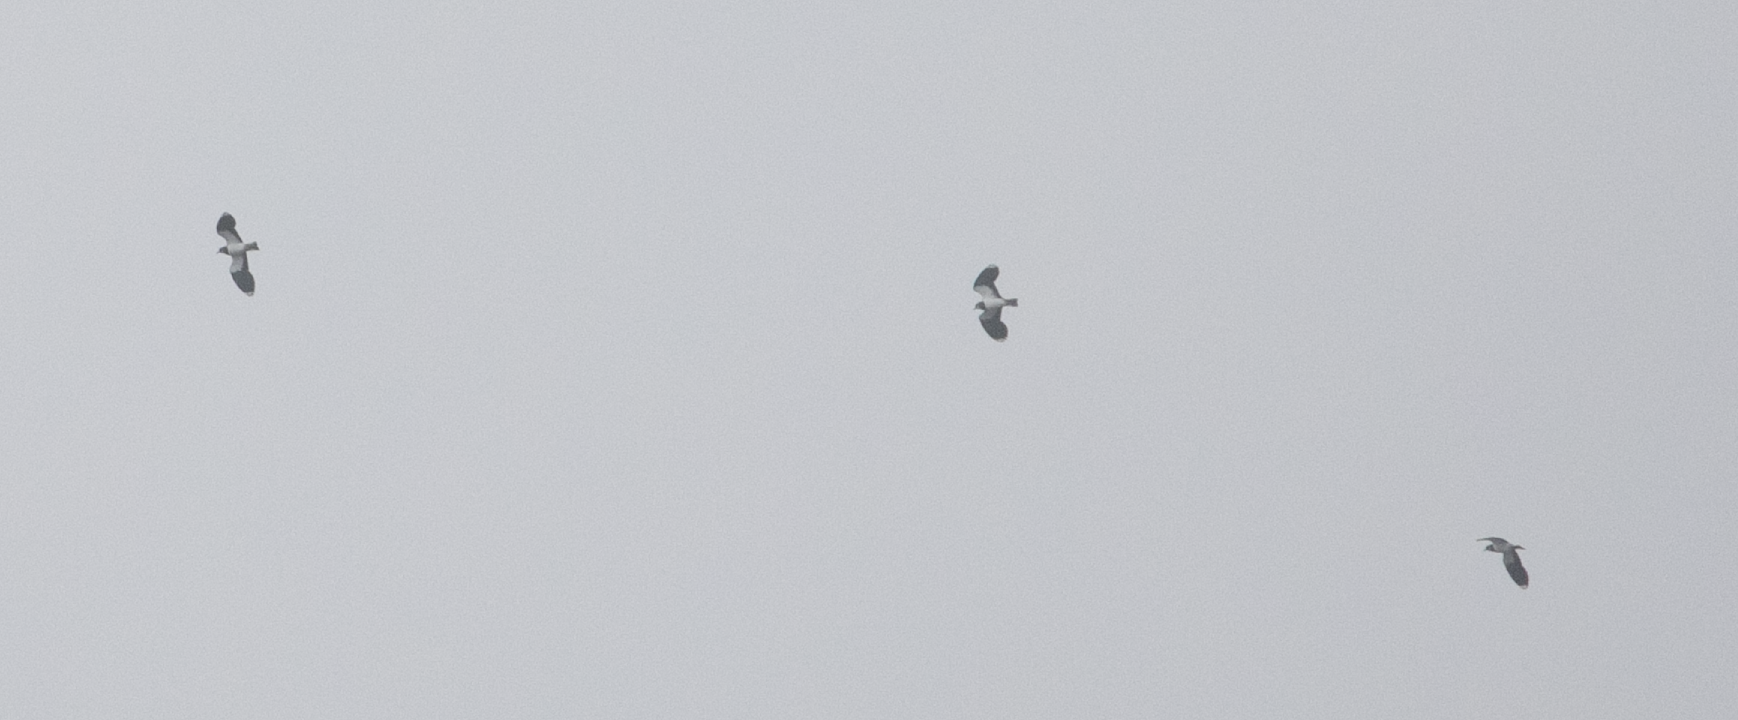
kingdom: Animalia
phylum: Chordata
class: Aves
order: Charadriiformes
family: Charadriidae
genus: Vanellus
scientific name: Vanellus vanellus
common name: Northern lapwing
